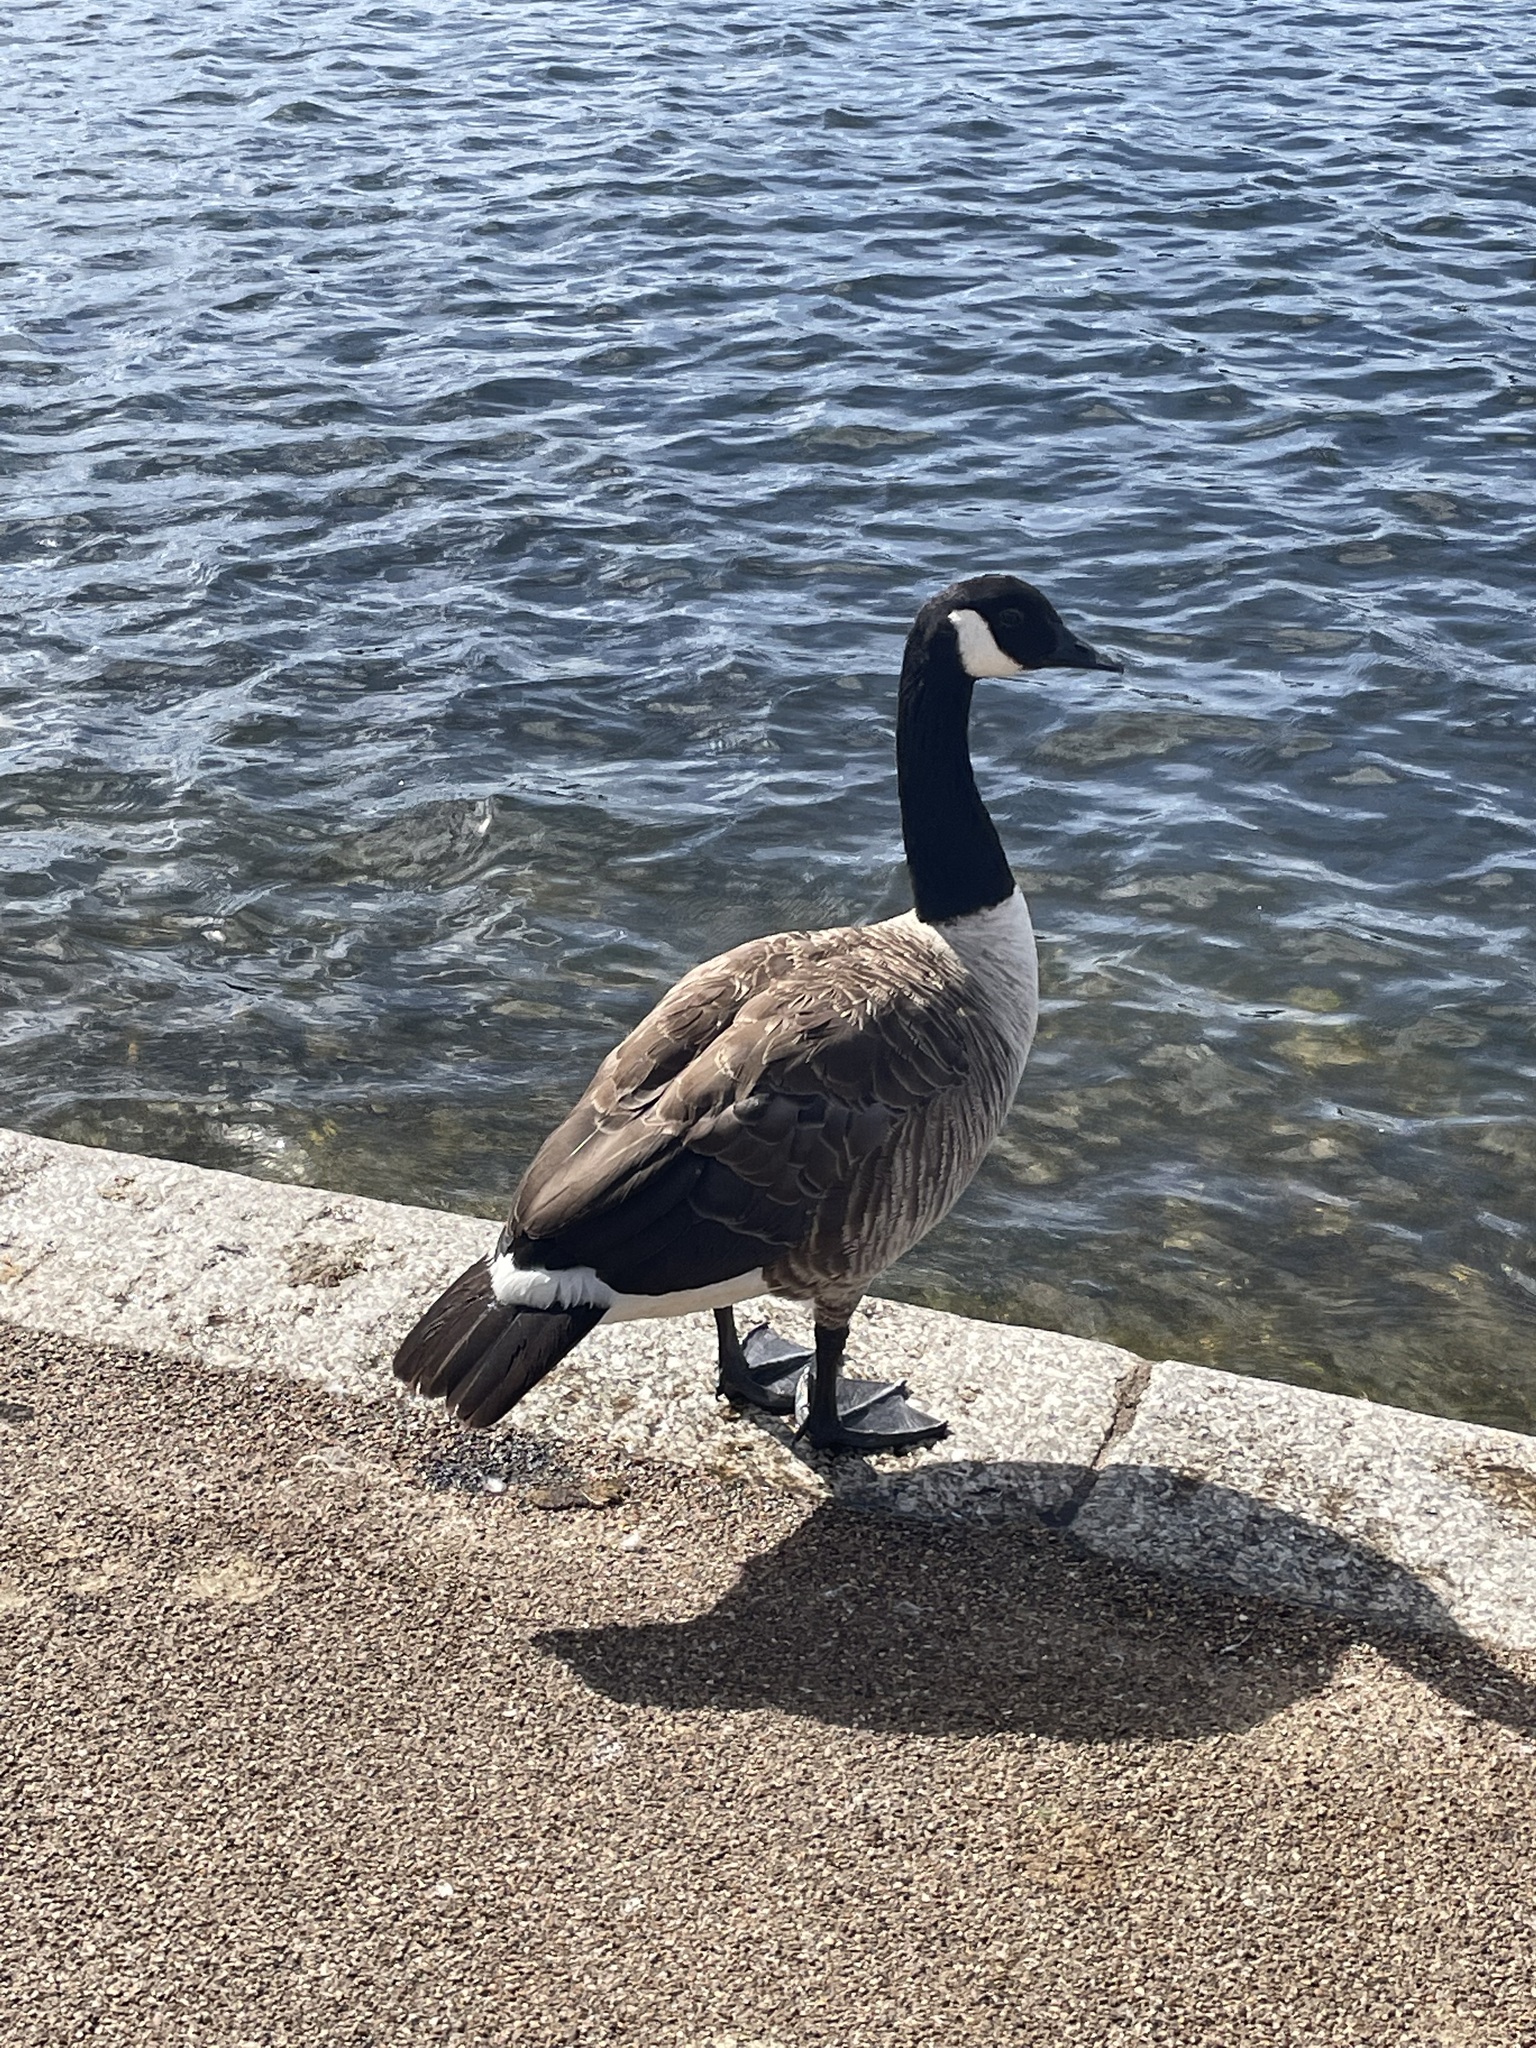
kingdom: Animalia
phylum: Chordata
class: Aves
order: Anseriformes
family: Anatidae
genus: Branta
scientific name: Branta canadensis
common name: Canada goose
